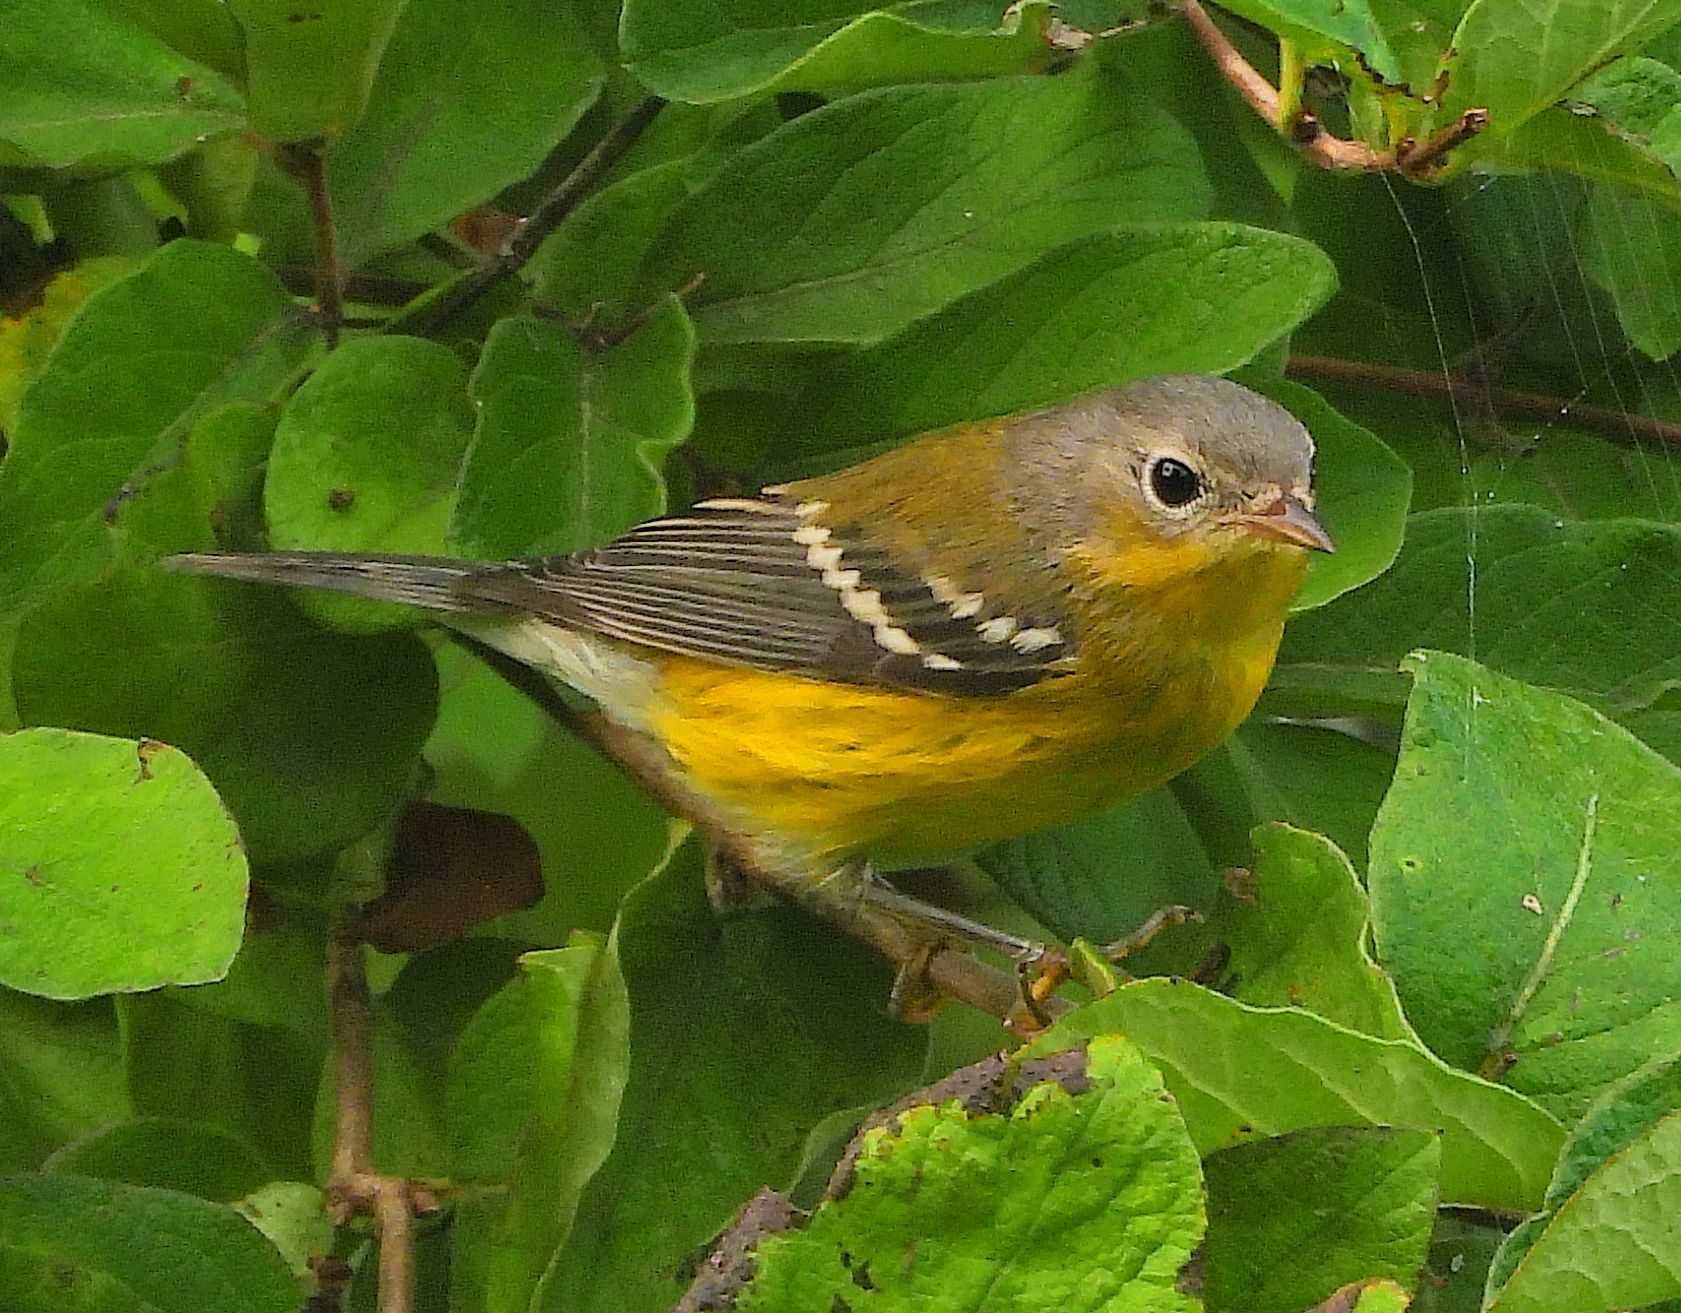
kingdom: Animalia
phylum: Chordata
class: Aves
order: Passeriformes
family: Parulidae
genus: Setophaga
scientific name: Setophaga magnolia
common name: Magnolia warbler
